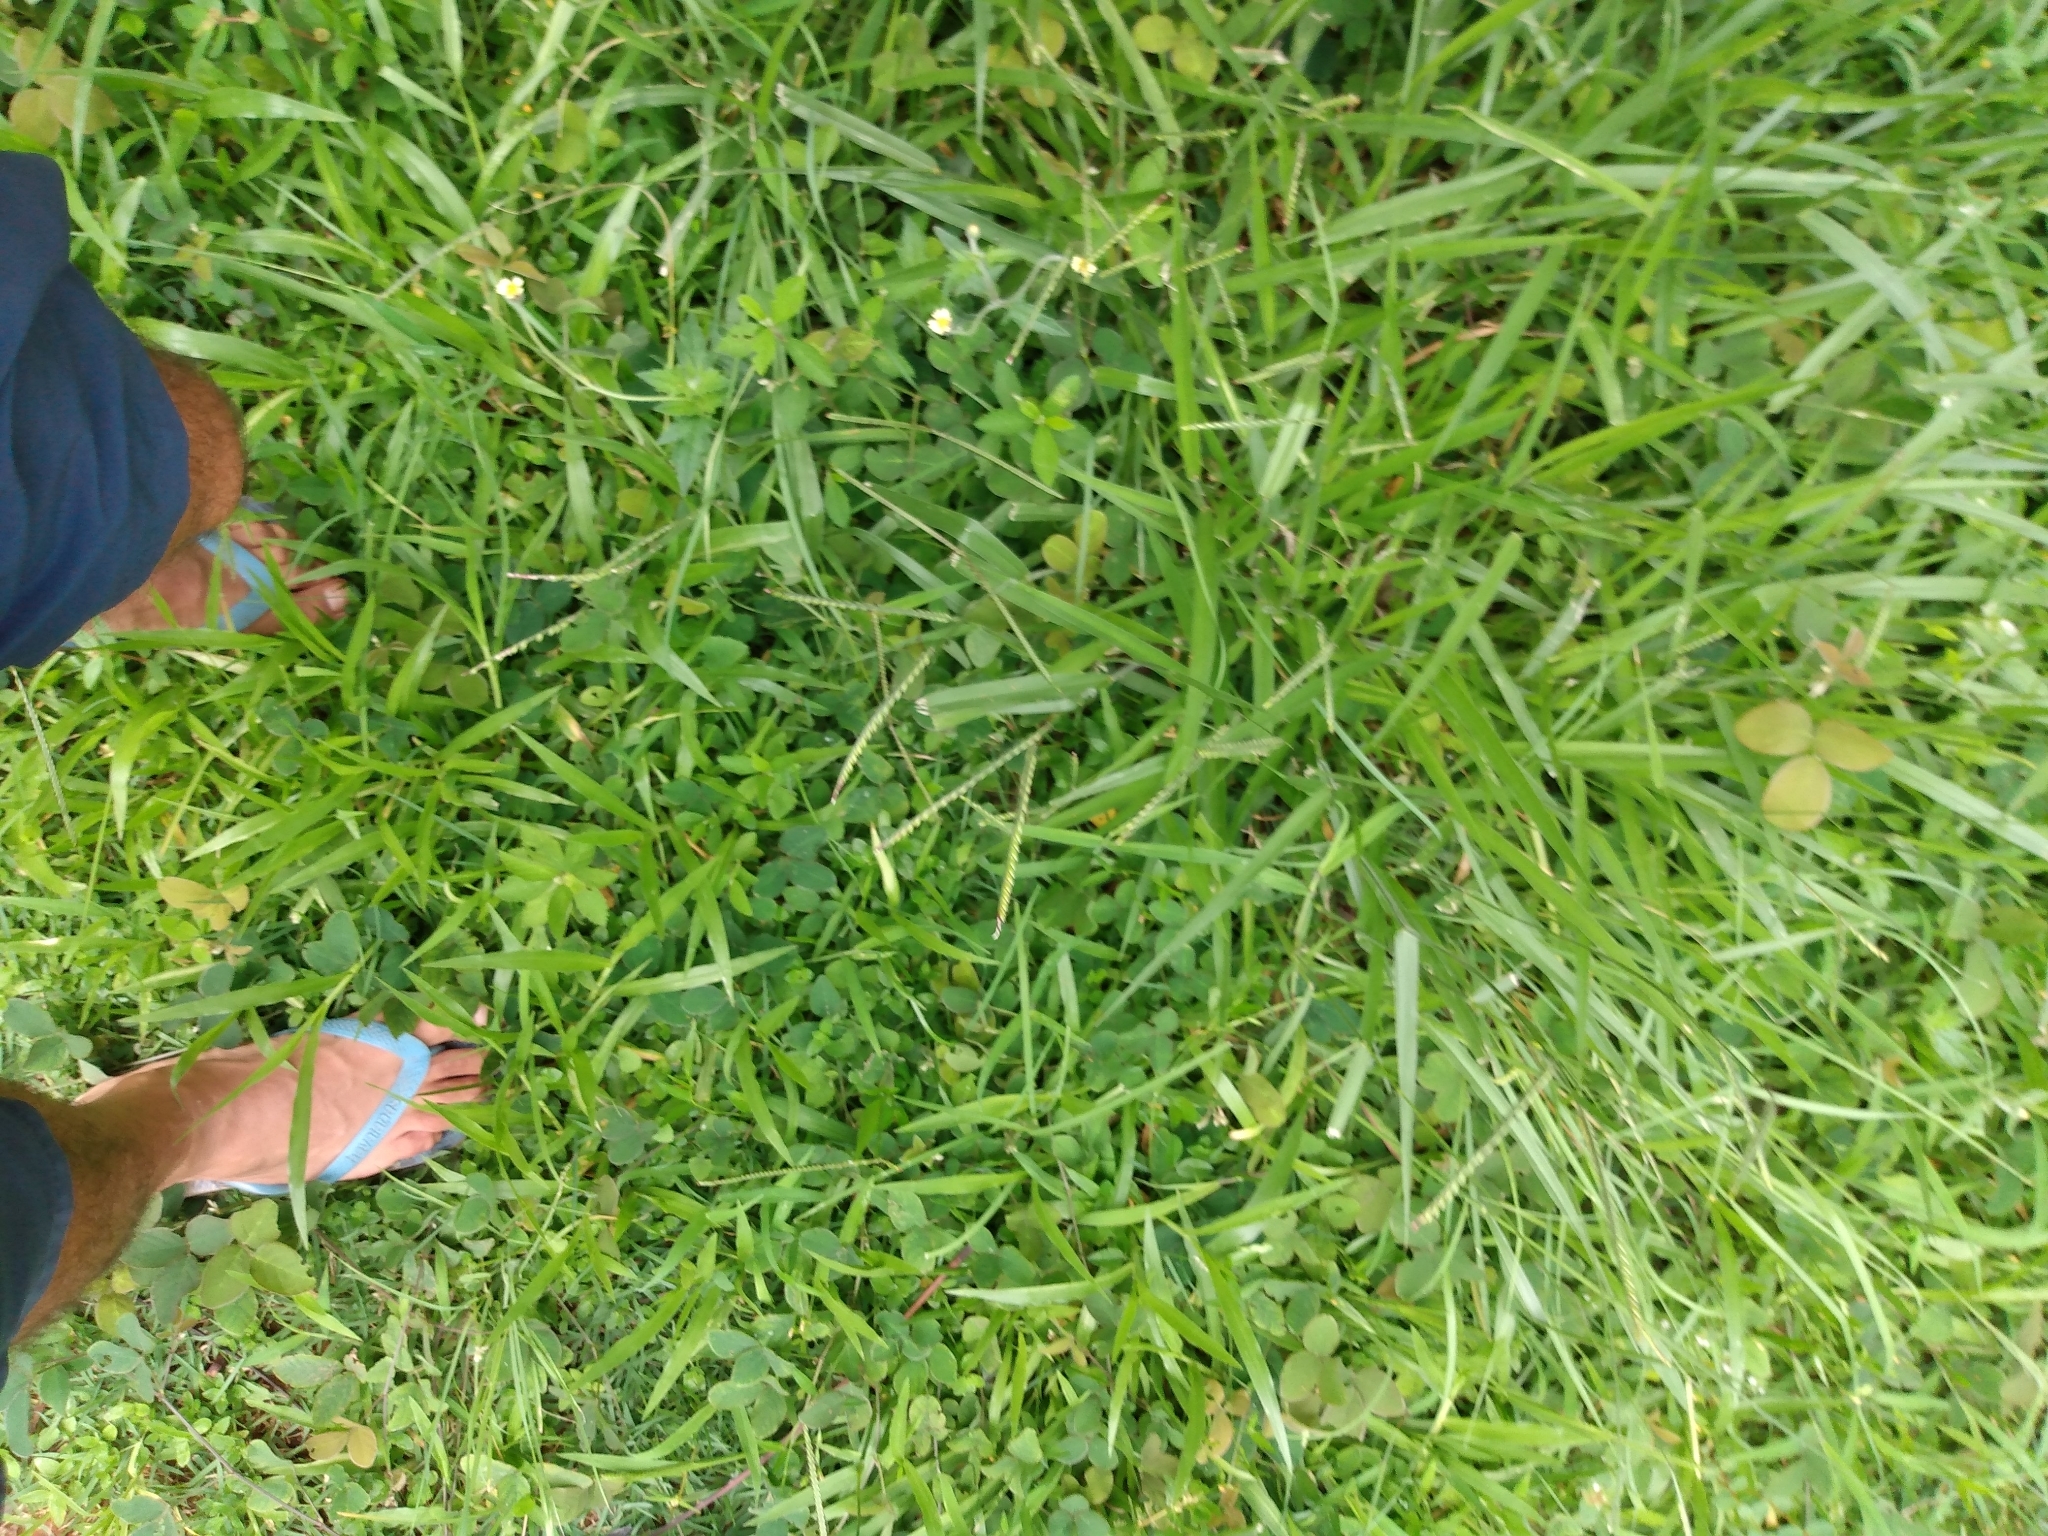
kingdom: Plantae
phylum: Tracheophyta
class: Magnoliopsida
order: Asterales
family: Asteraceae
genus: Tridax
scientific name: Tridax procumbens
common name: Coatbuttons
